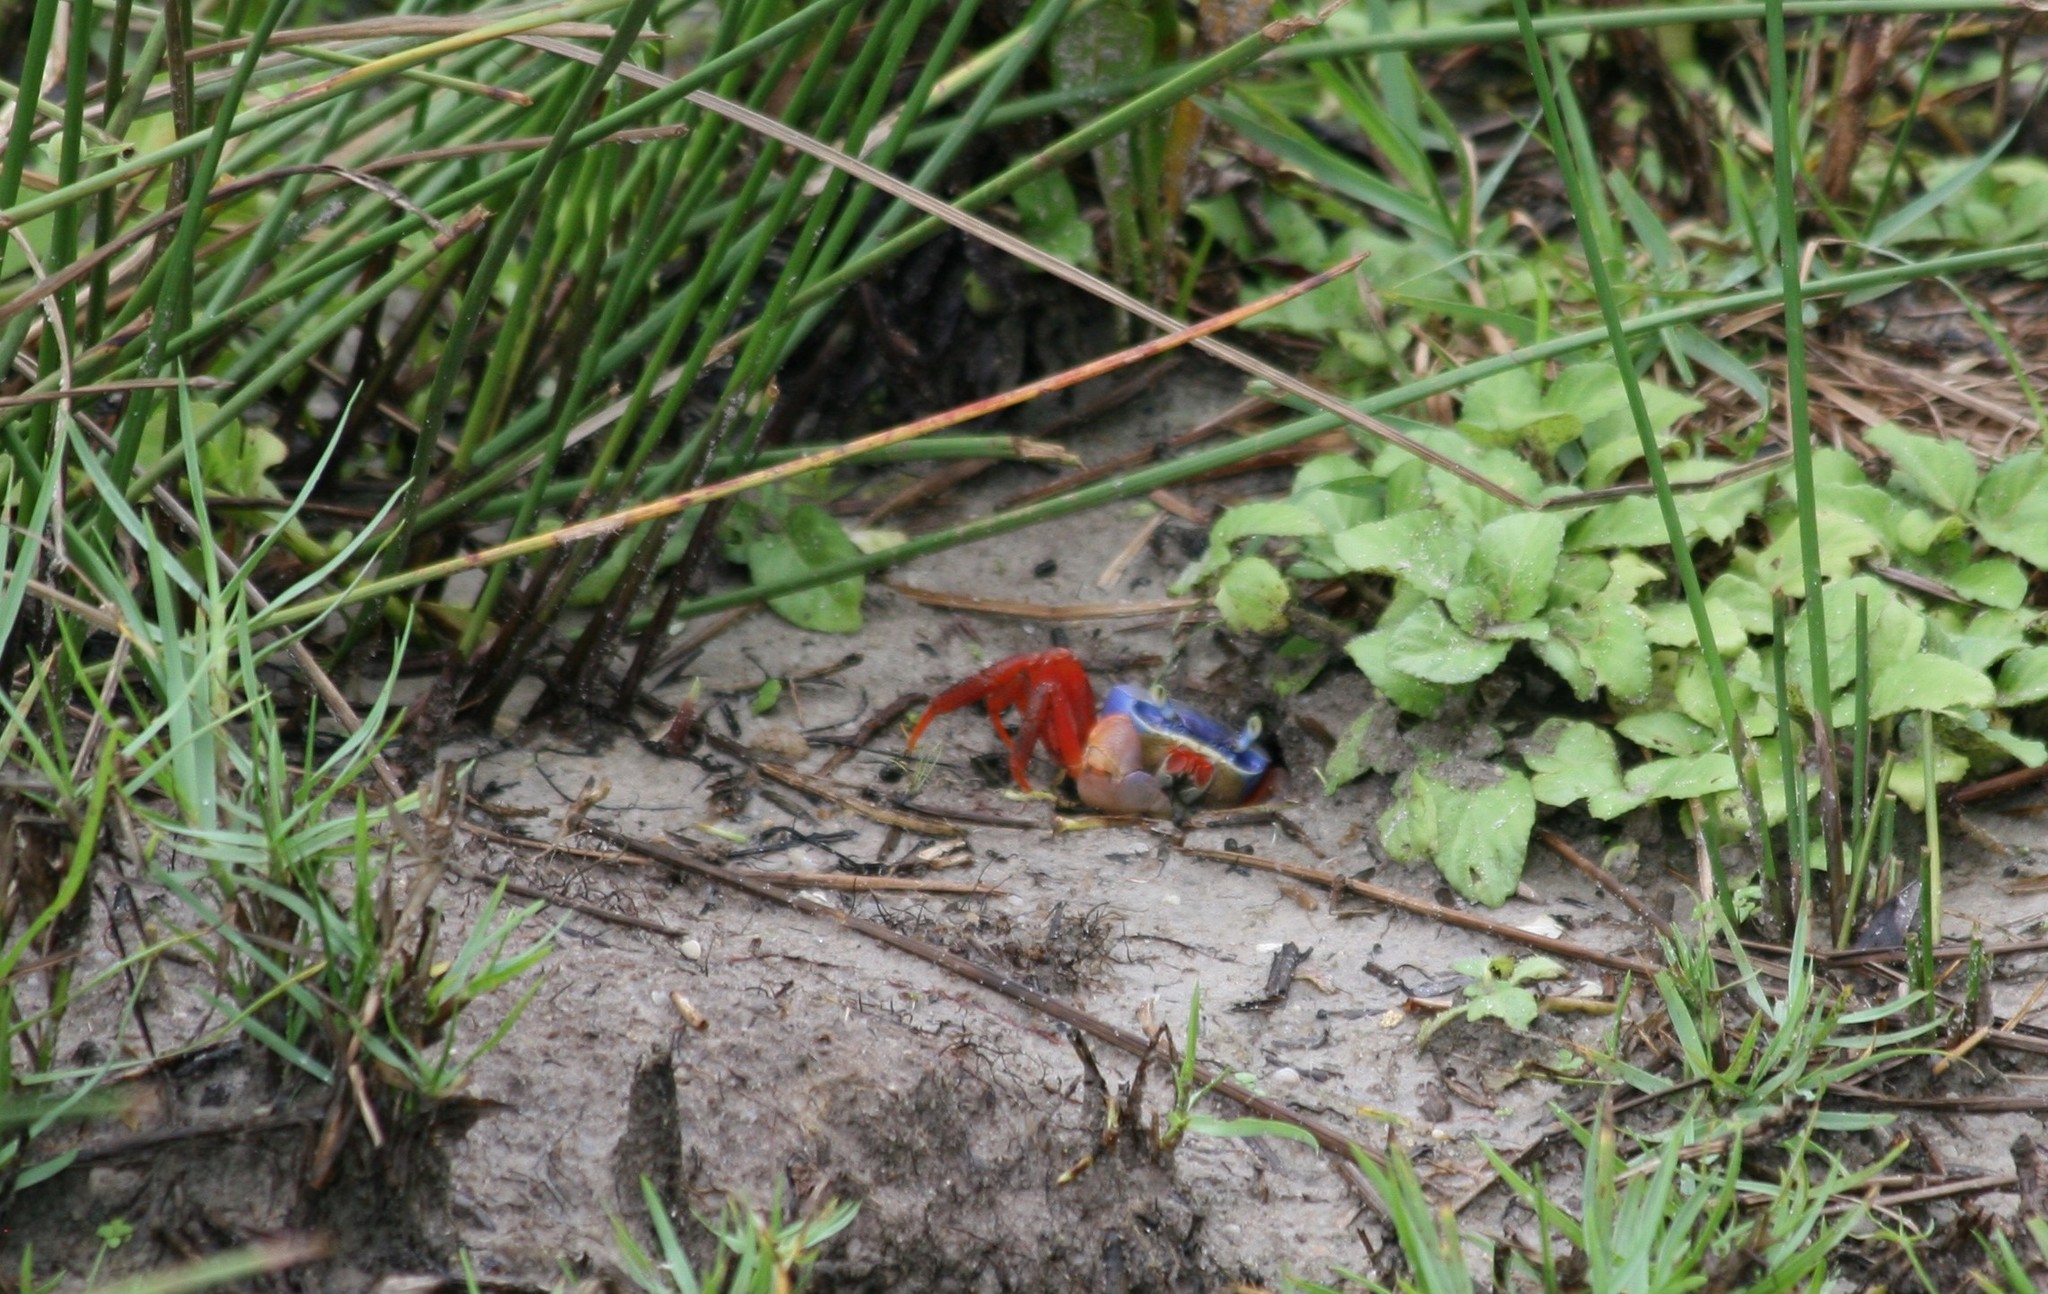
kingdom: Animalia
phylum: Arthropoda
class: Malacostraca
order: Decapoda
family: Gecarcinidae
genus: Cardisoma
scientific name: Cardisoma armatum
